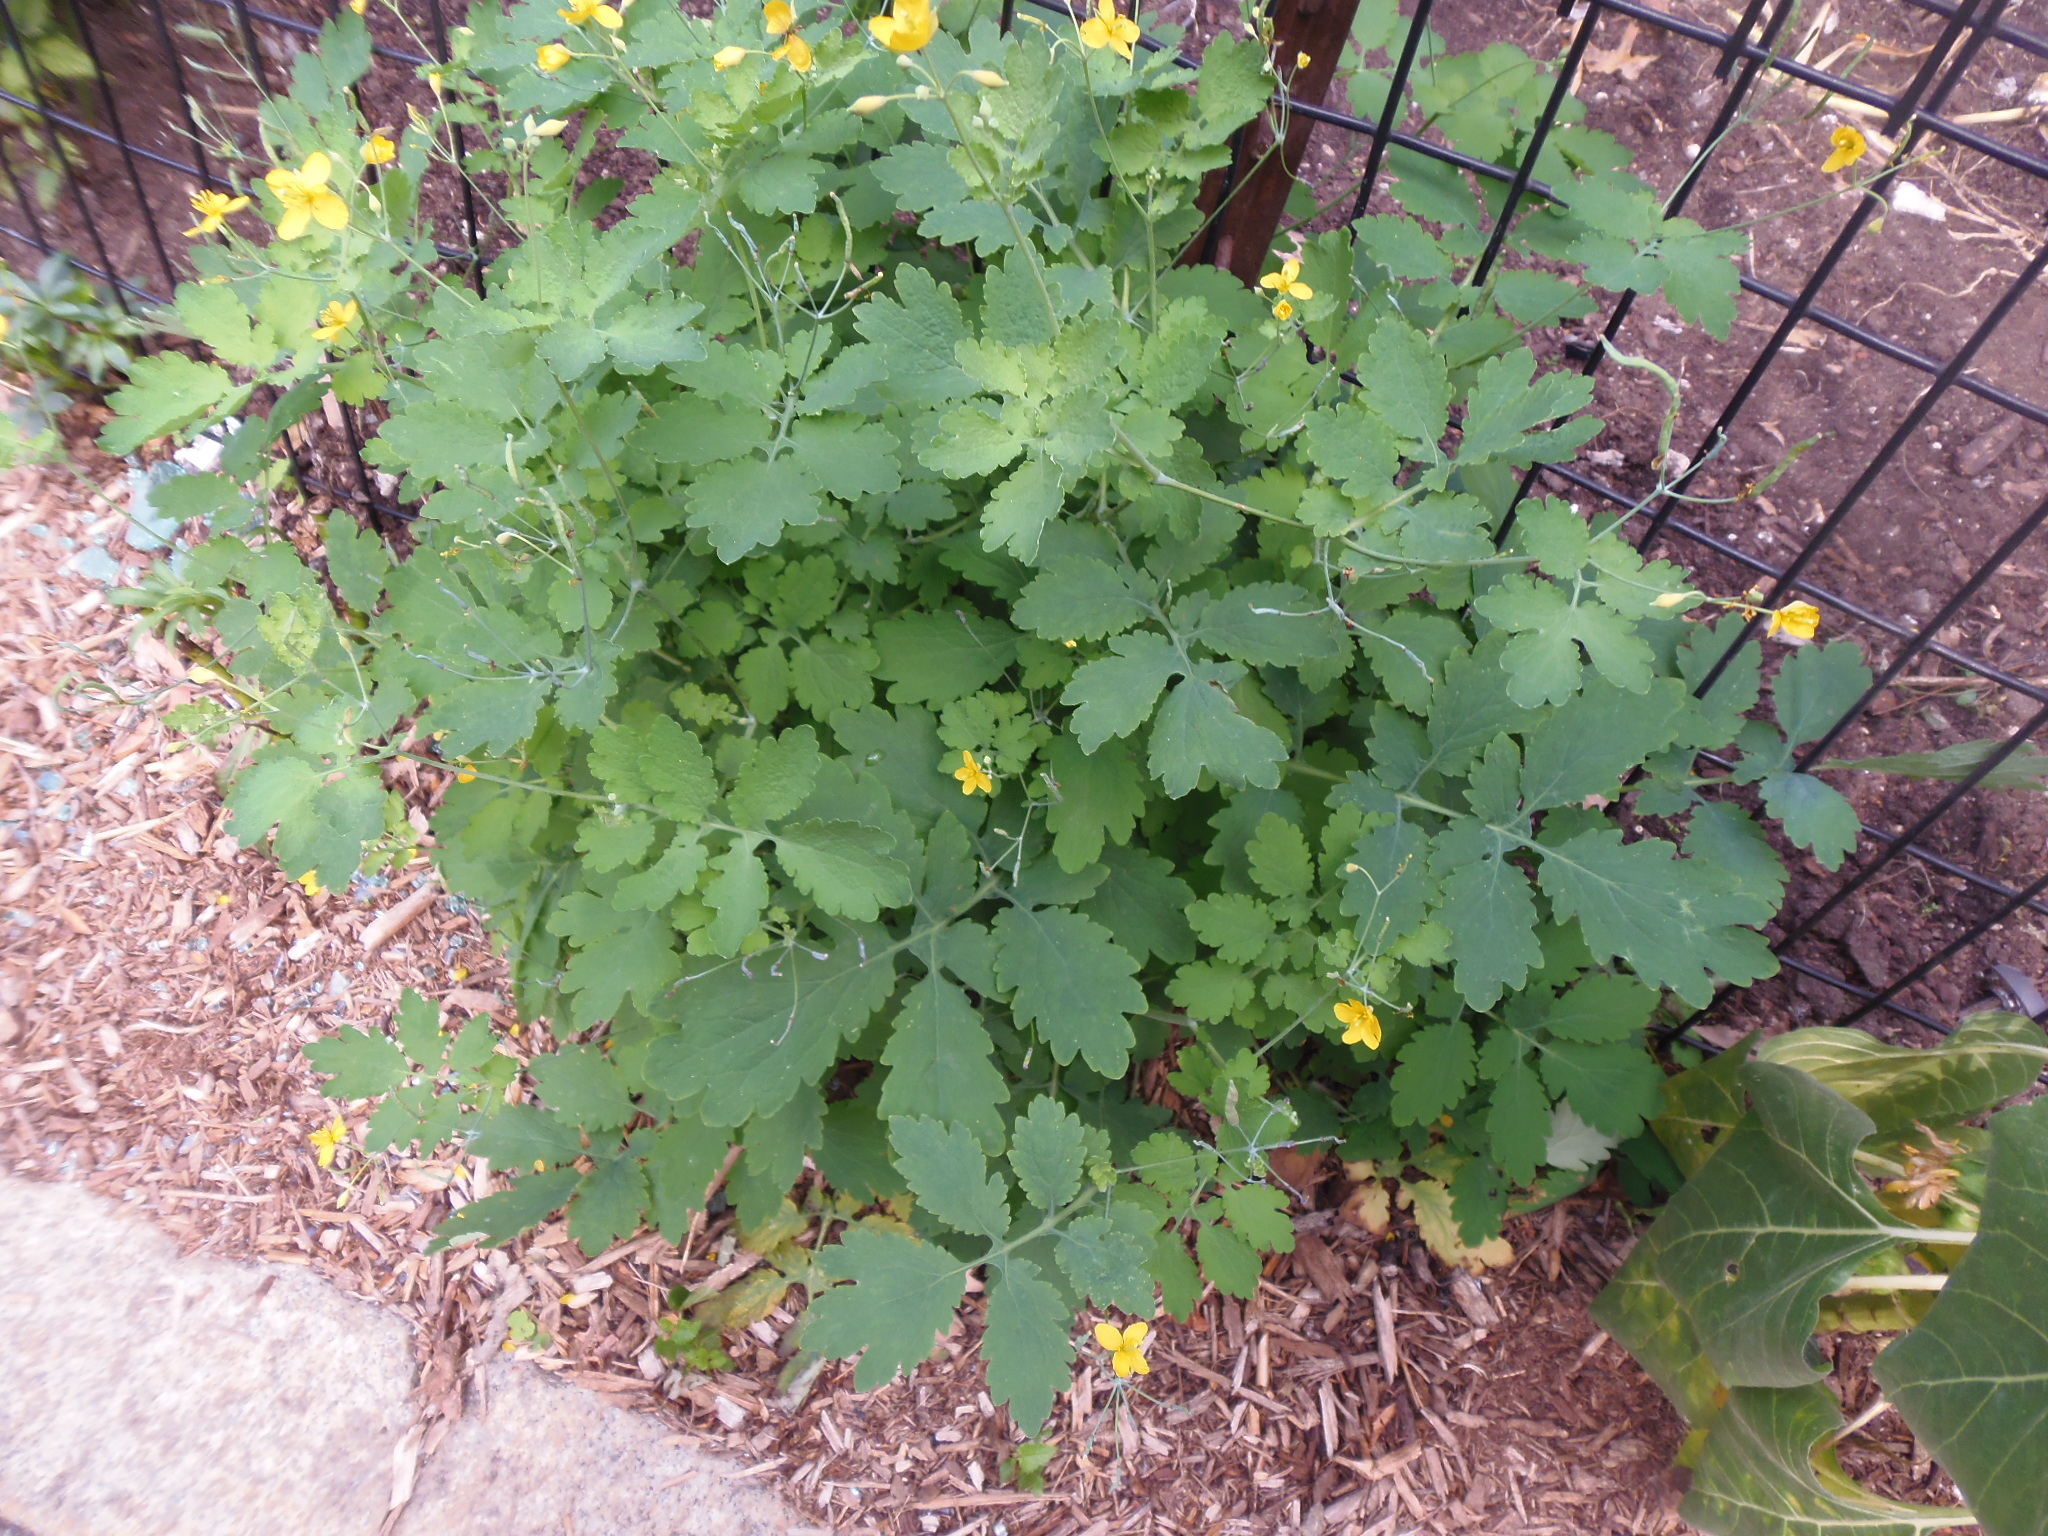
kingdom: Plantae
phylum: Tracheophyta
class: Magnoliopsida
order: Ranunculales
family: Papaveraceae
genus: Chelidonium
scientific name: Chelidonium majus
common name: Greater celandine
